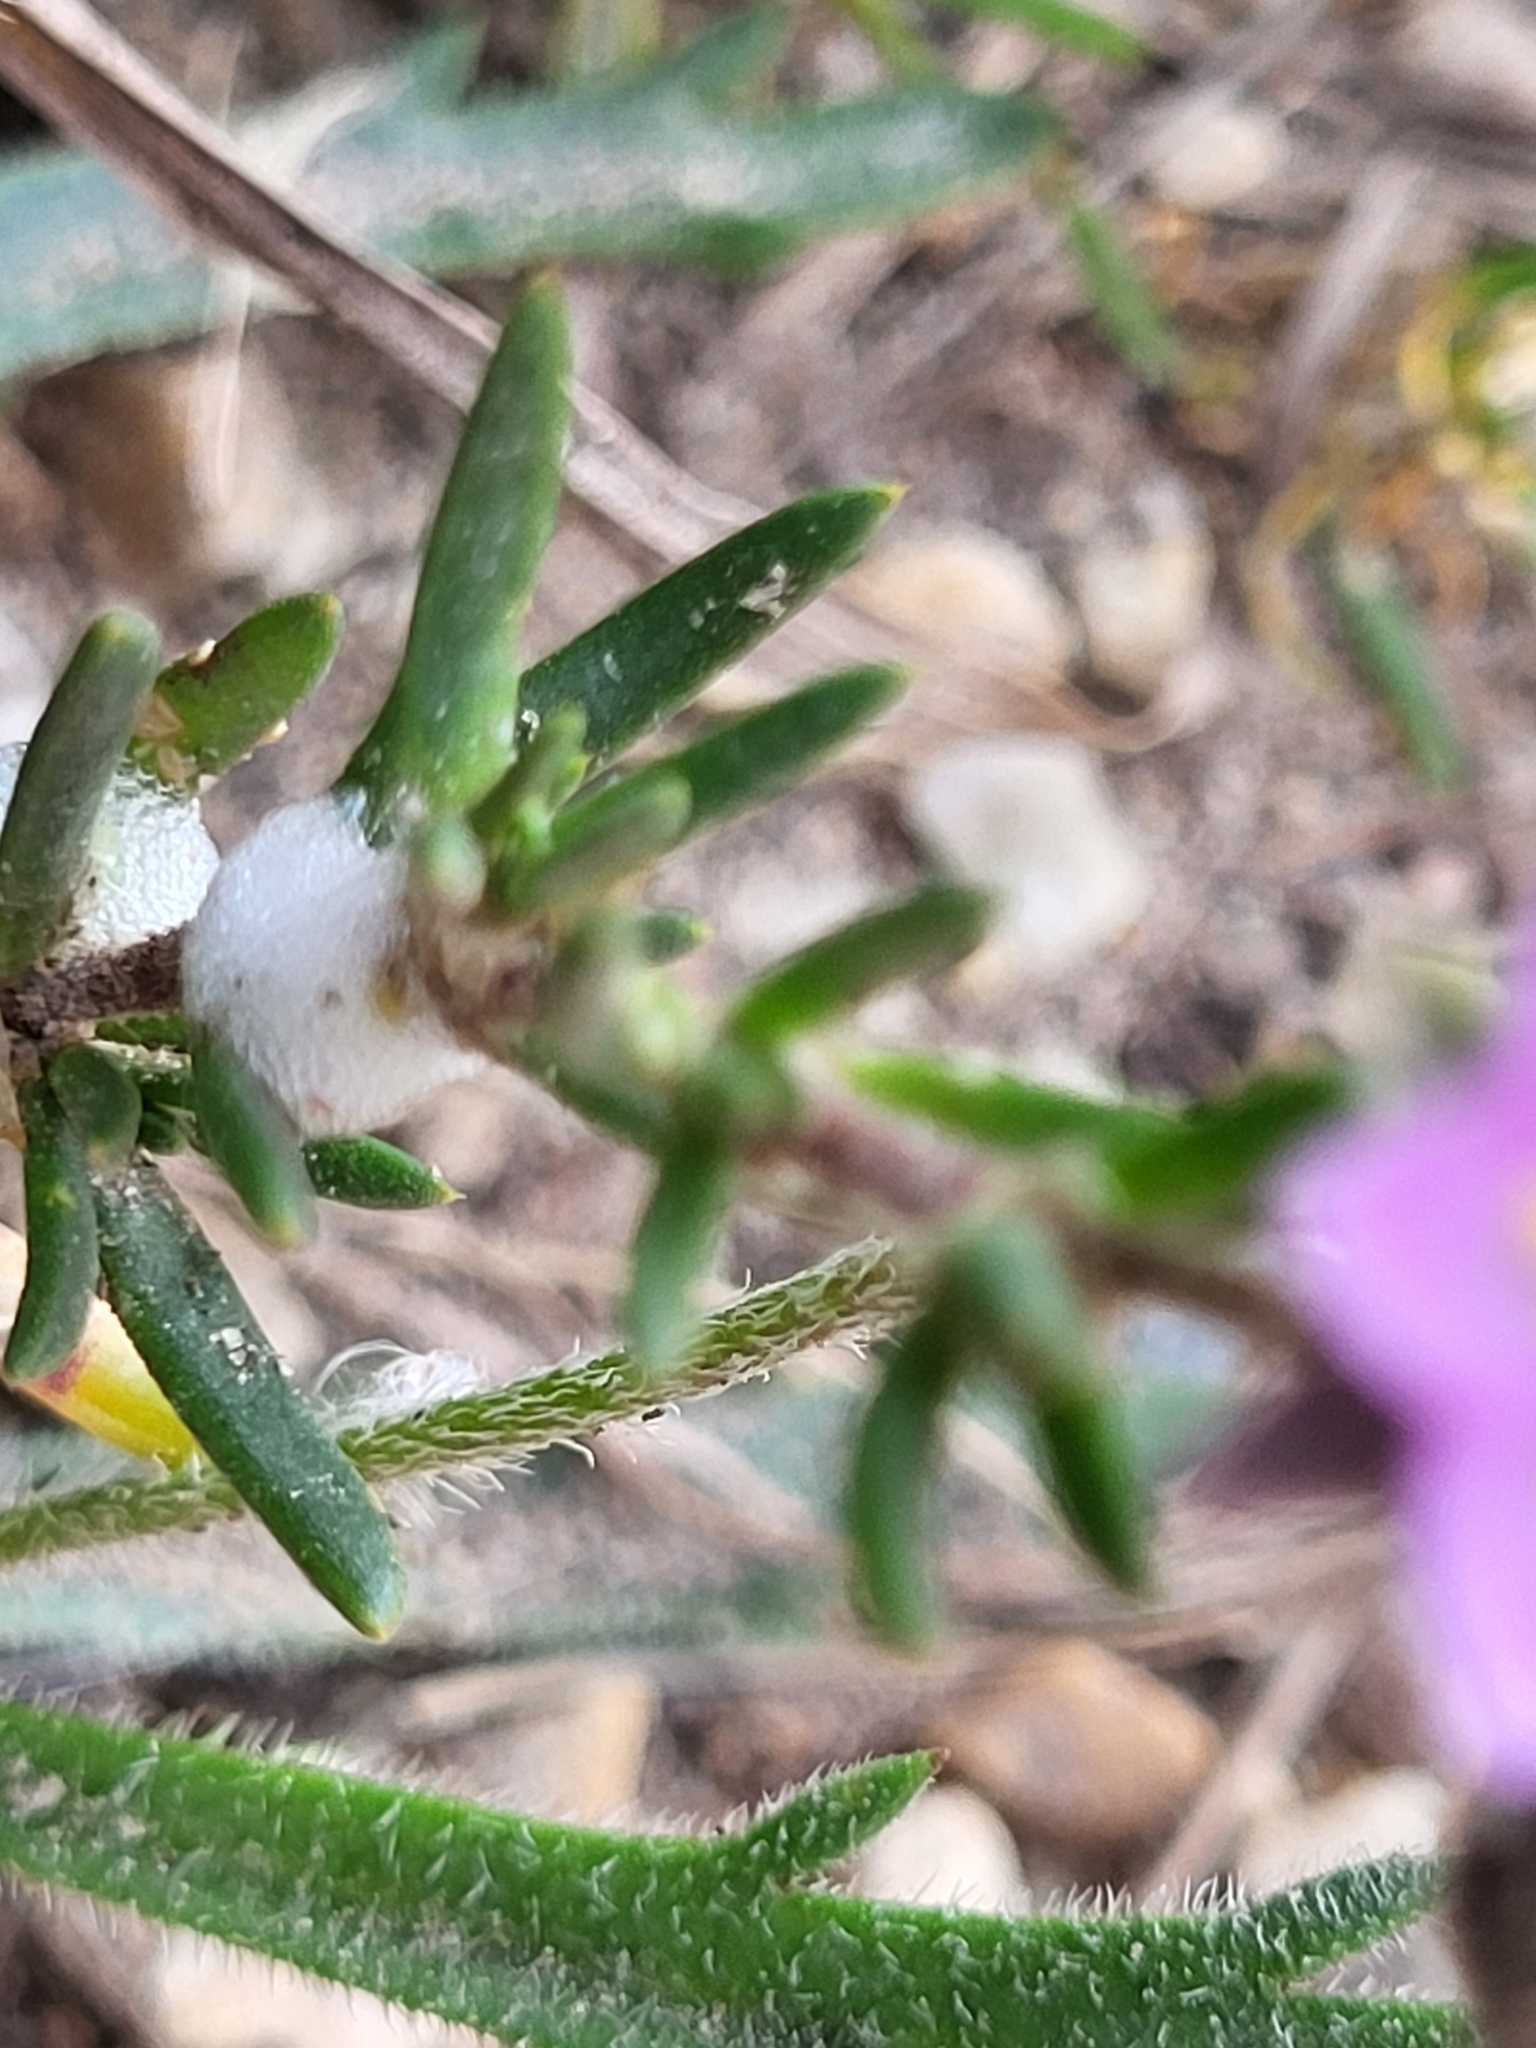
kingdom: Plantae
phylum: Tracheophyta
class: Magnoliopsida
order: Caryophyllales
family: Caryophyllaceae
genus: Spergularia
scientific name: Spergularia rupicola
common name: Cliff sand-spurrey
